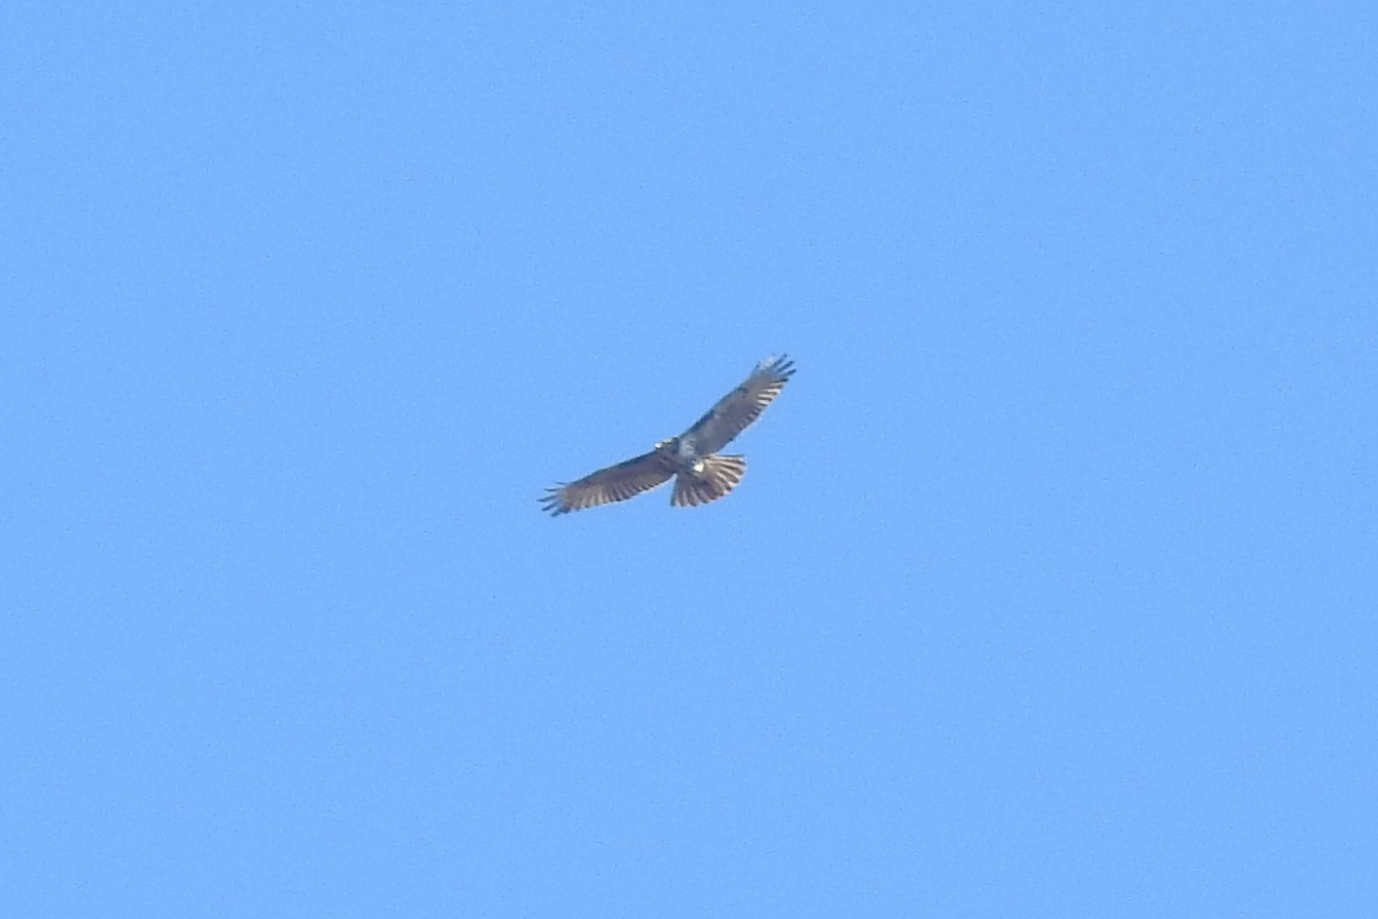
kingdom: Animalia
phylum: Chordata
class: Aves
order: Accipitriformes
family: Accipitridae
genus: Buteo
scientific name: Buteo jamaicensis
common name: Red-tailed hawk
